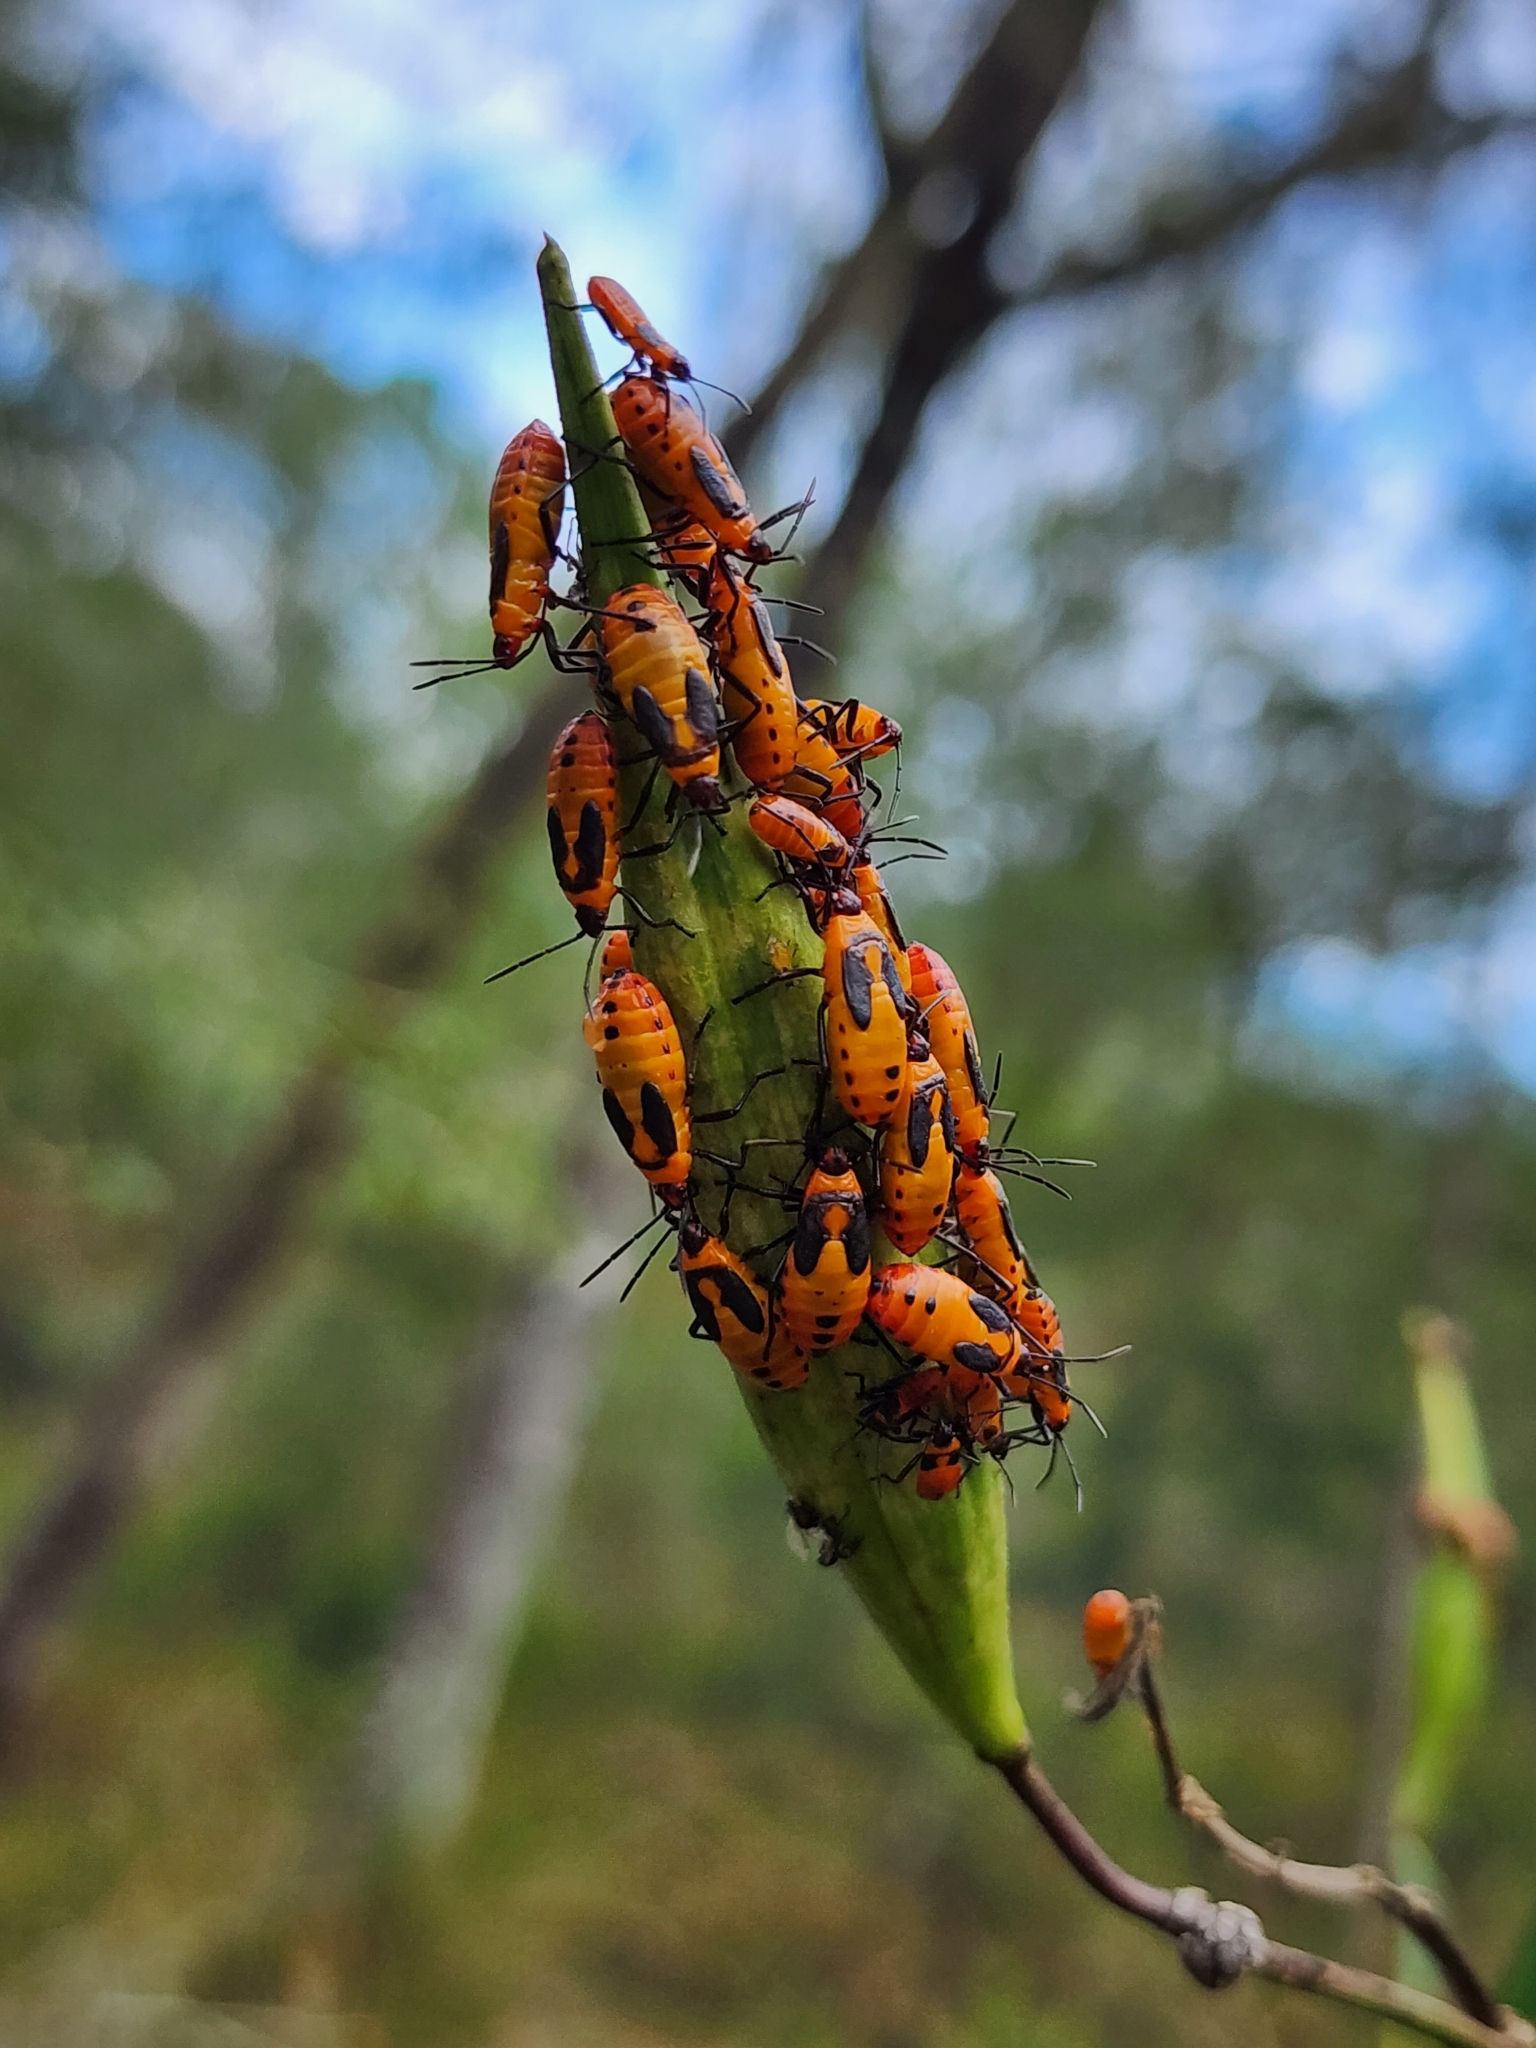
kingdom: Animalia
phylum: Arthropoda
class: Insecta
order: Hemiptera
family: Lygaeidae
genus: Oncopeltus
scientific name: Oncopeltus fasciatus
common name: Large milkweed bug
